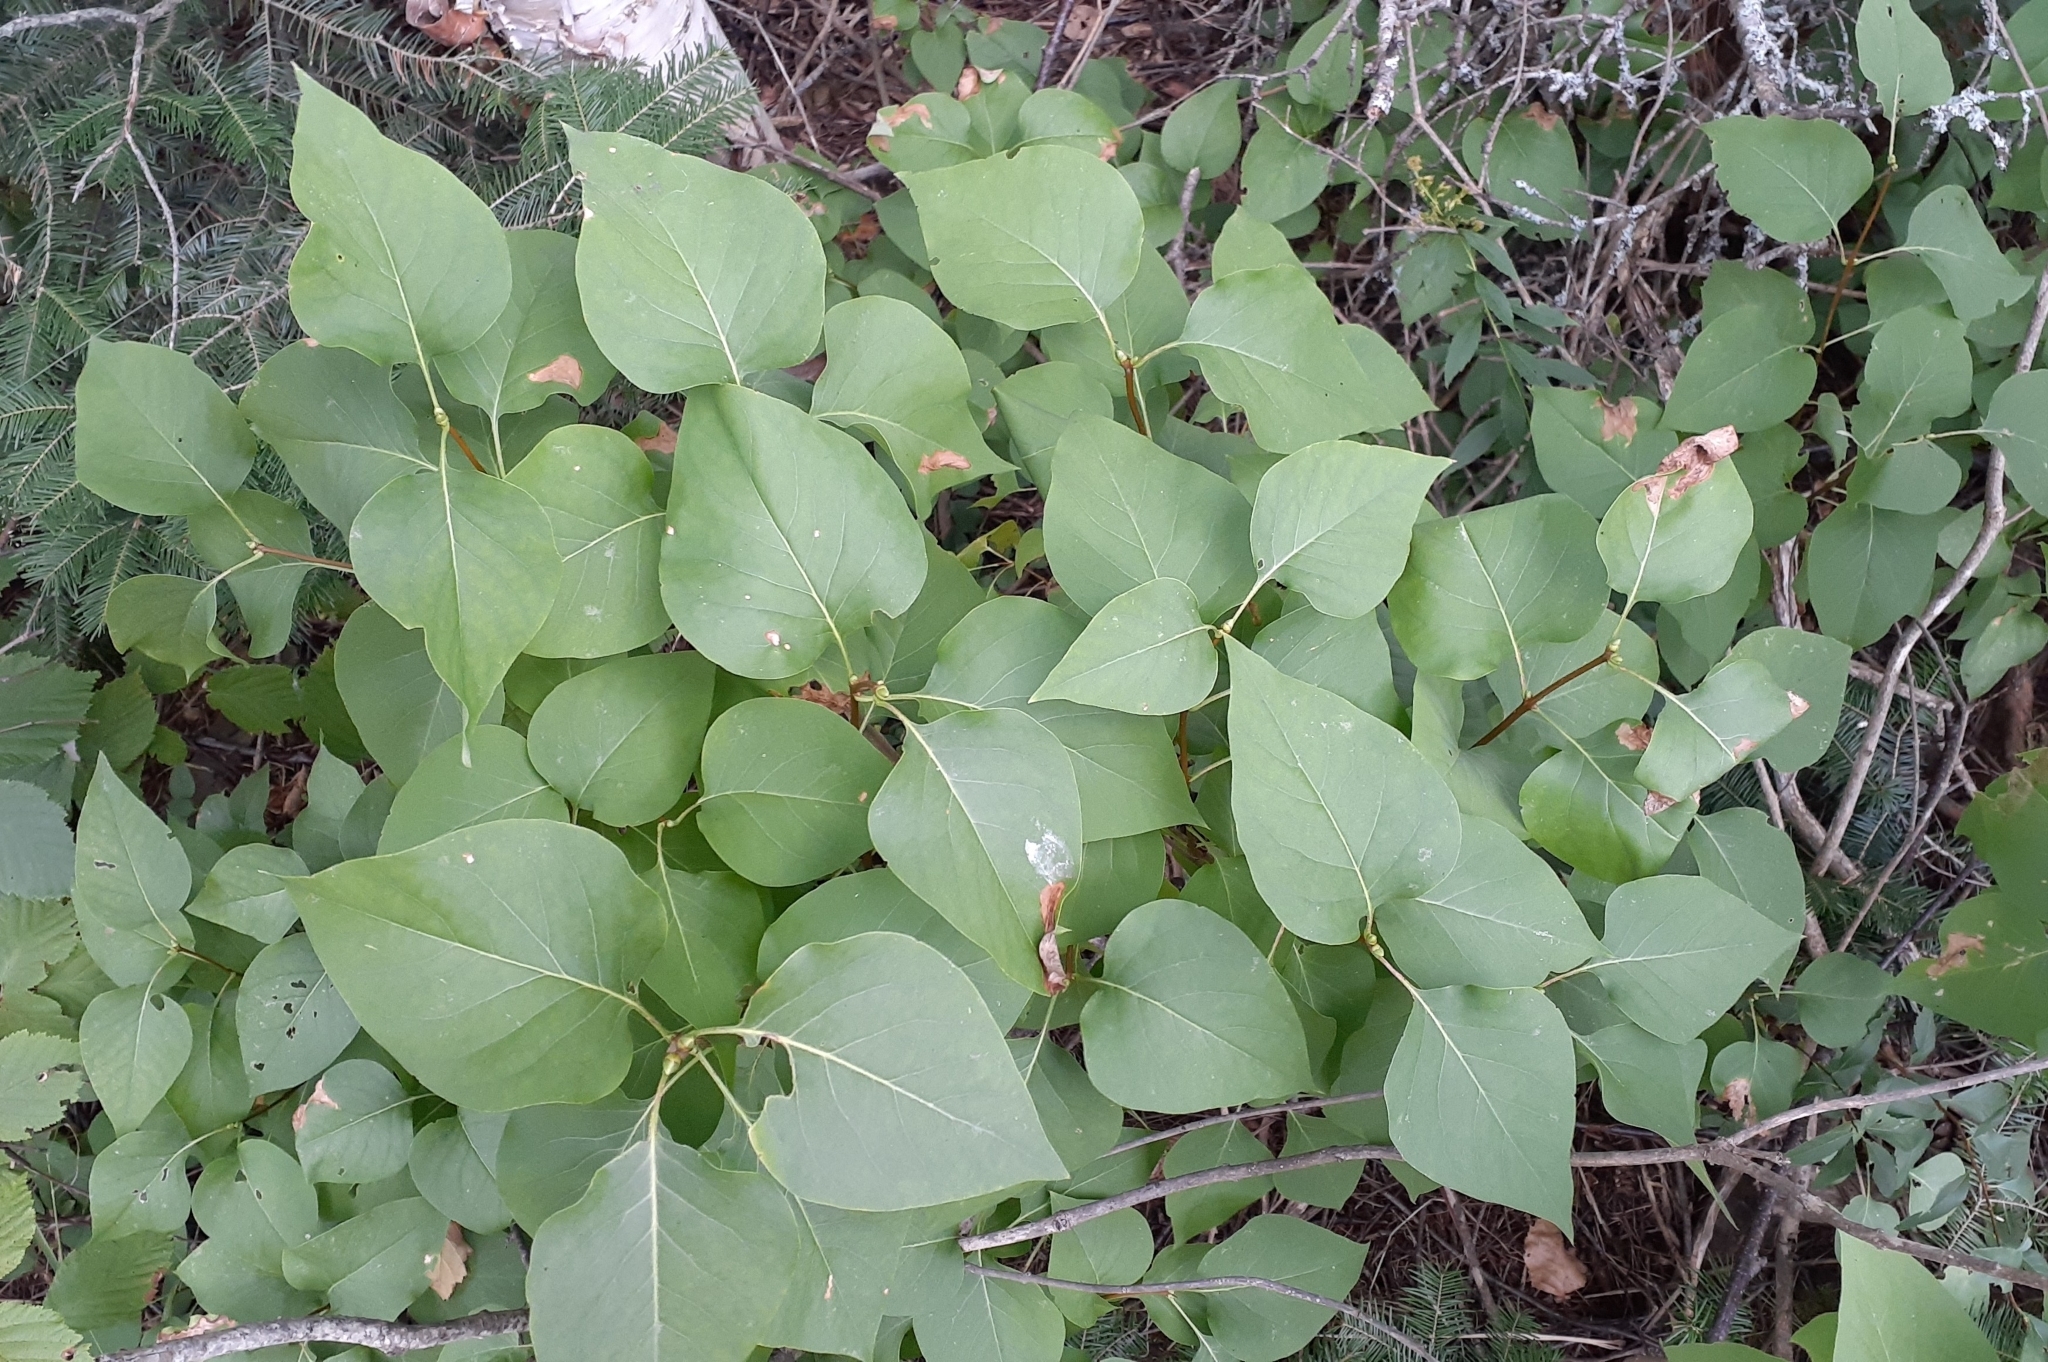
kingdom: Plantae
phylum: Tracheophyta
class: Magnoliopsida
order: Lamiales
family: Oleaceae
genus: Syringa
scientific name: Syringa vulgaris
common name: Common lilac
